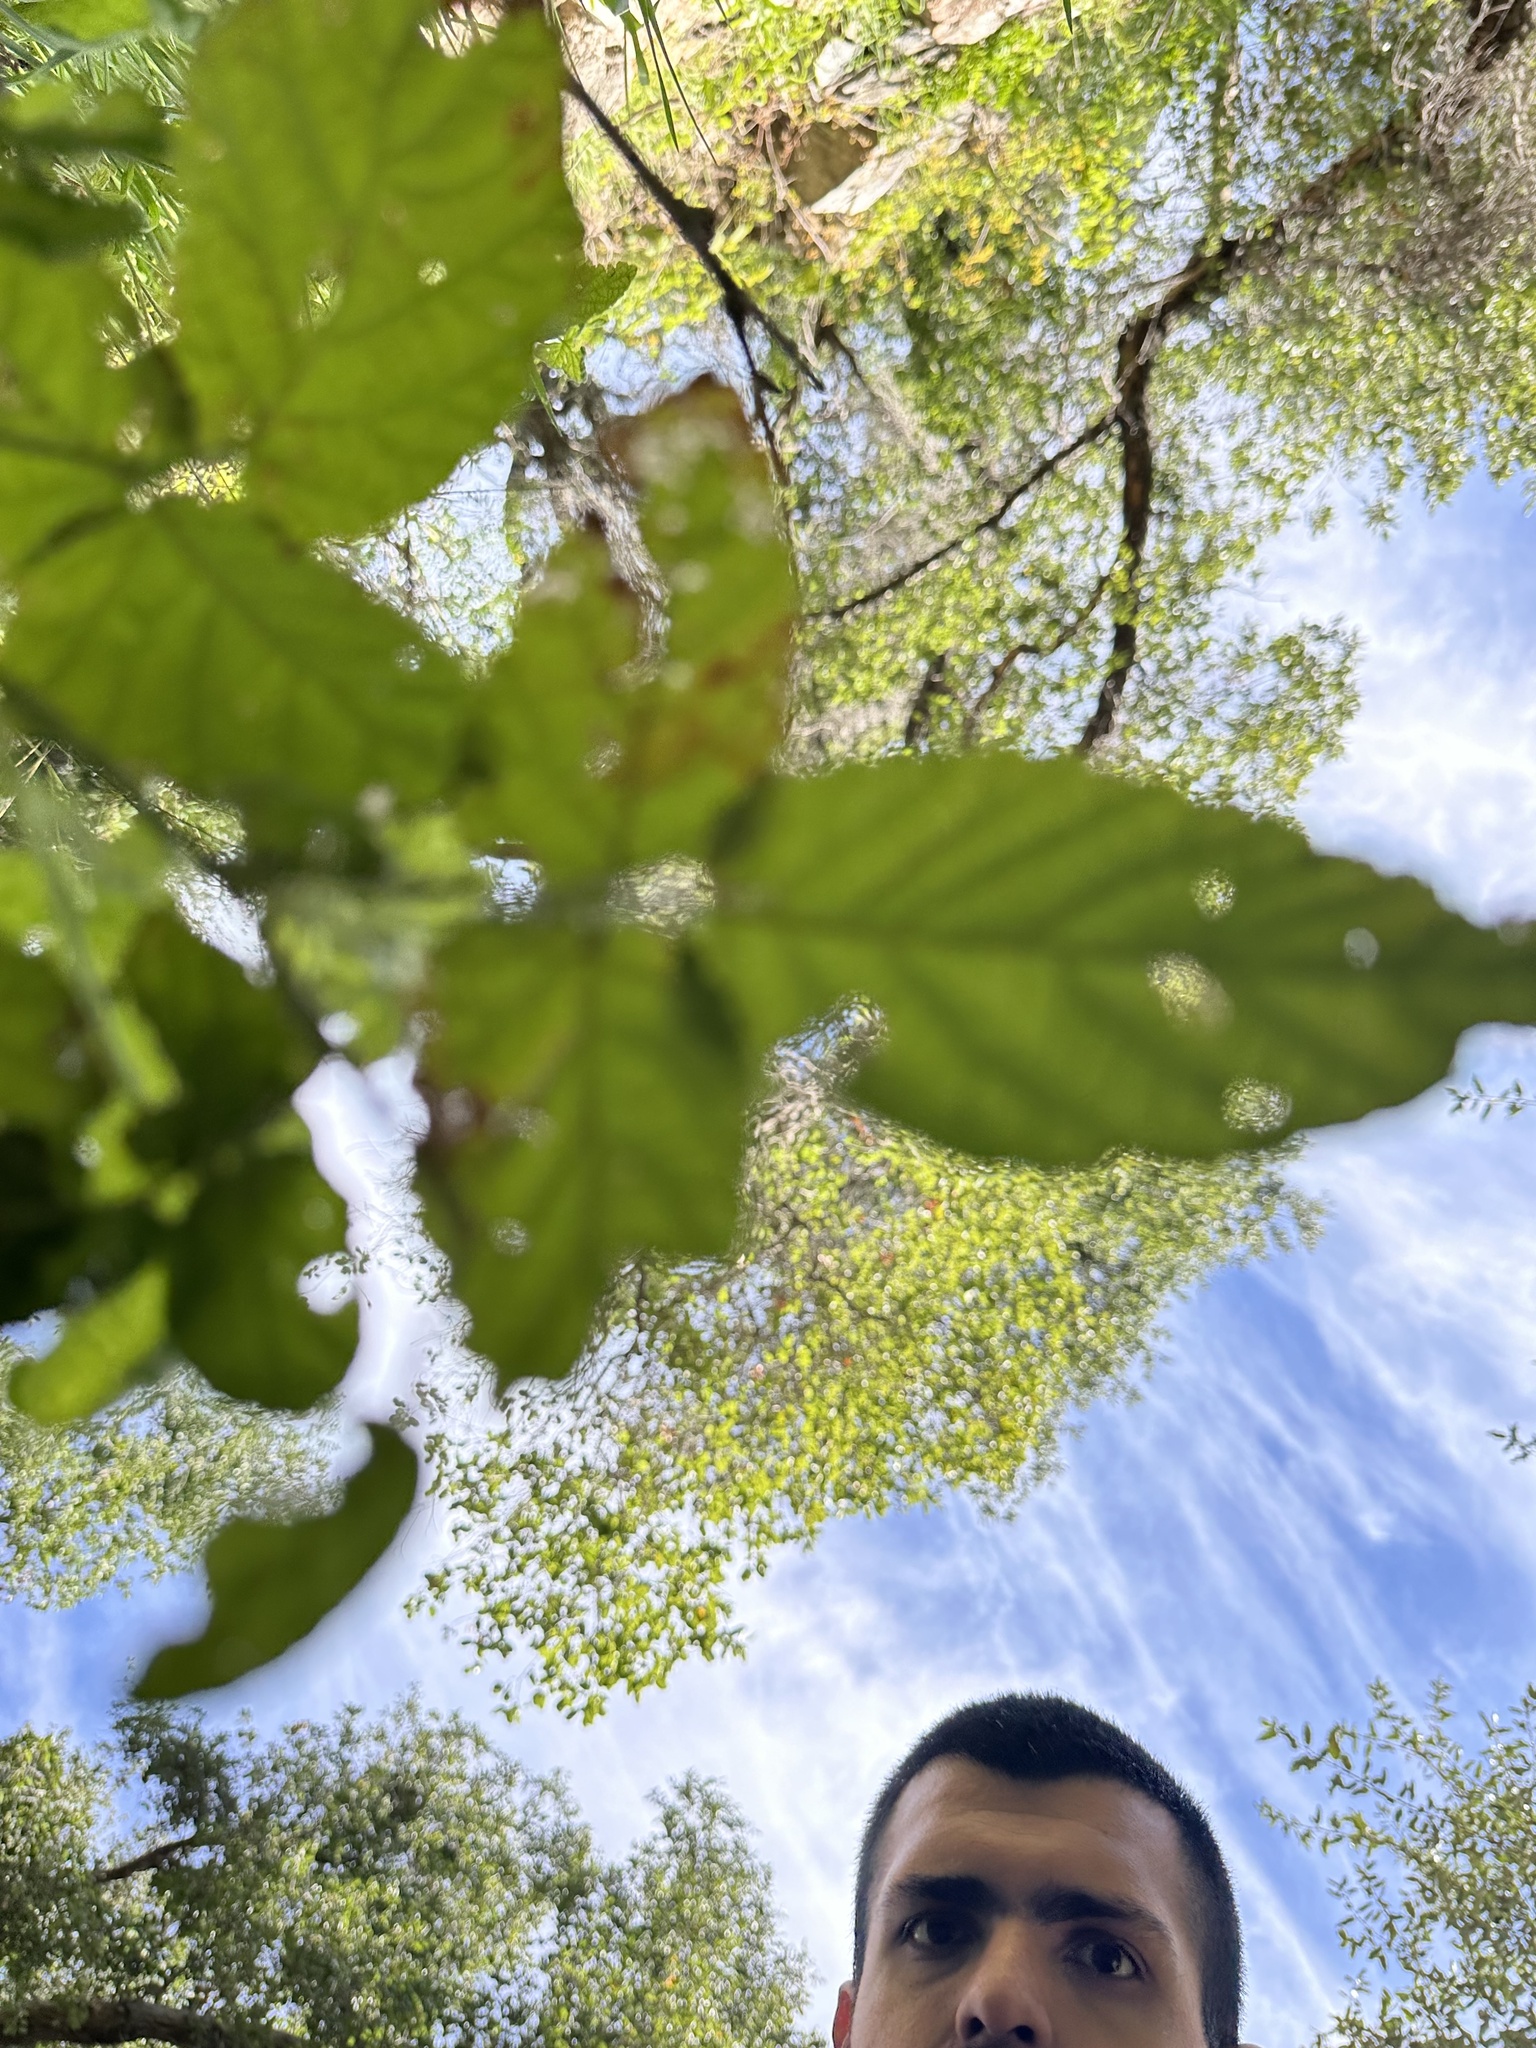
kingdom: Plantae
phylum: Tracheophyta
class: Magnoliopsida
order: Rosales
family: Rosaceae
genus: Rubus
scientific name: Rubus ursinus
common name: Pacific blackberry
